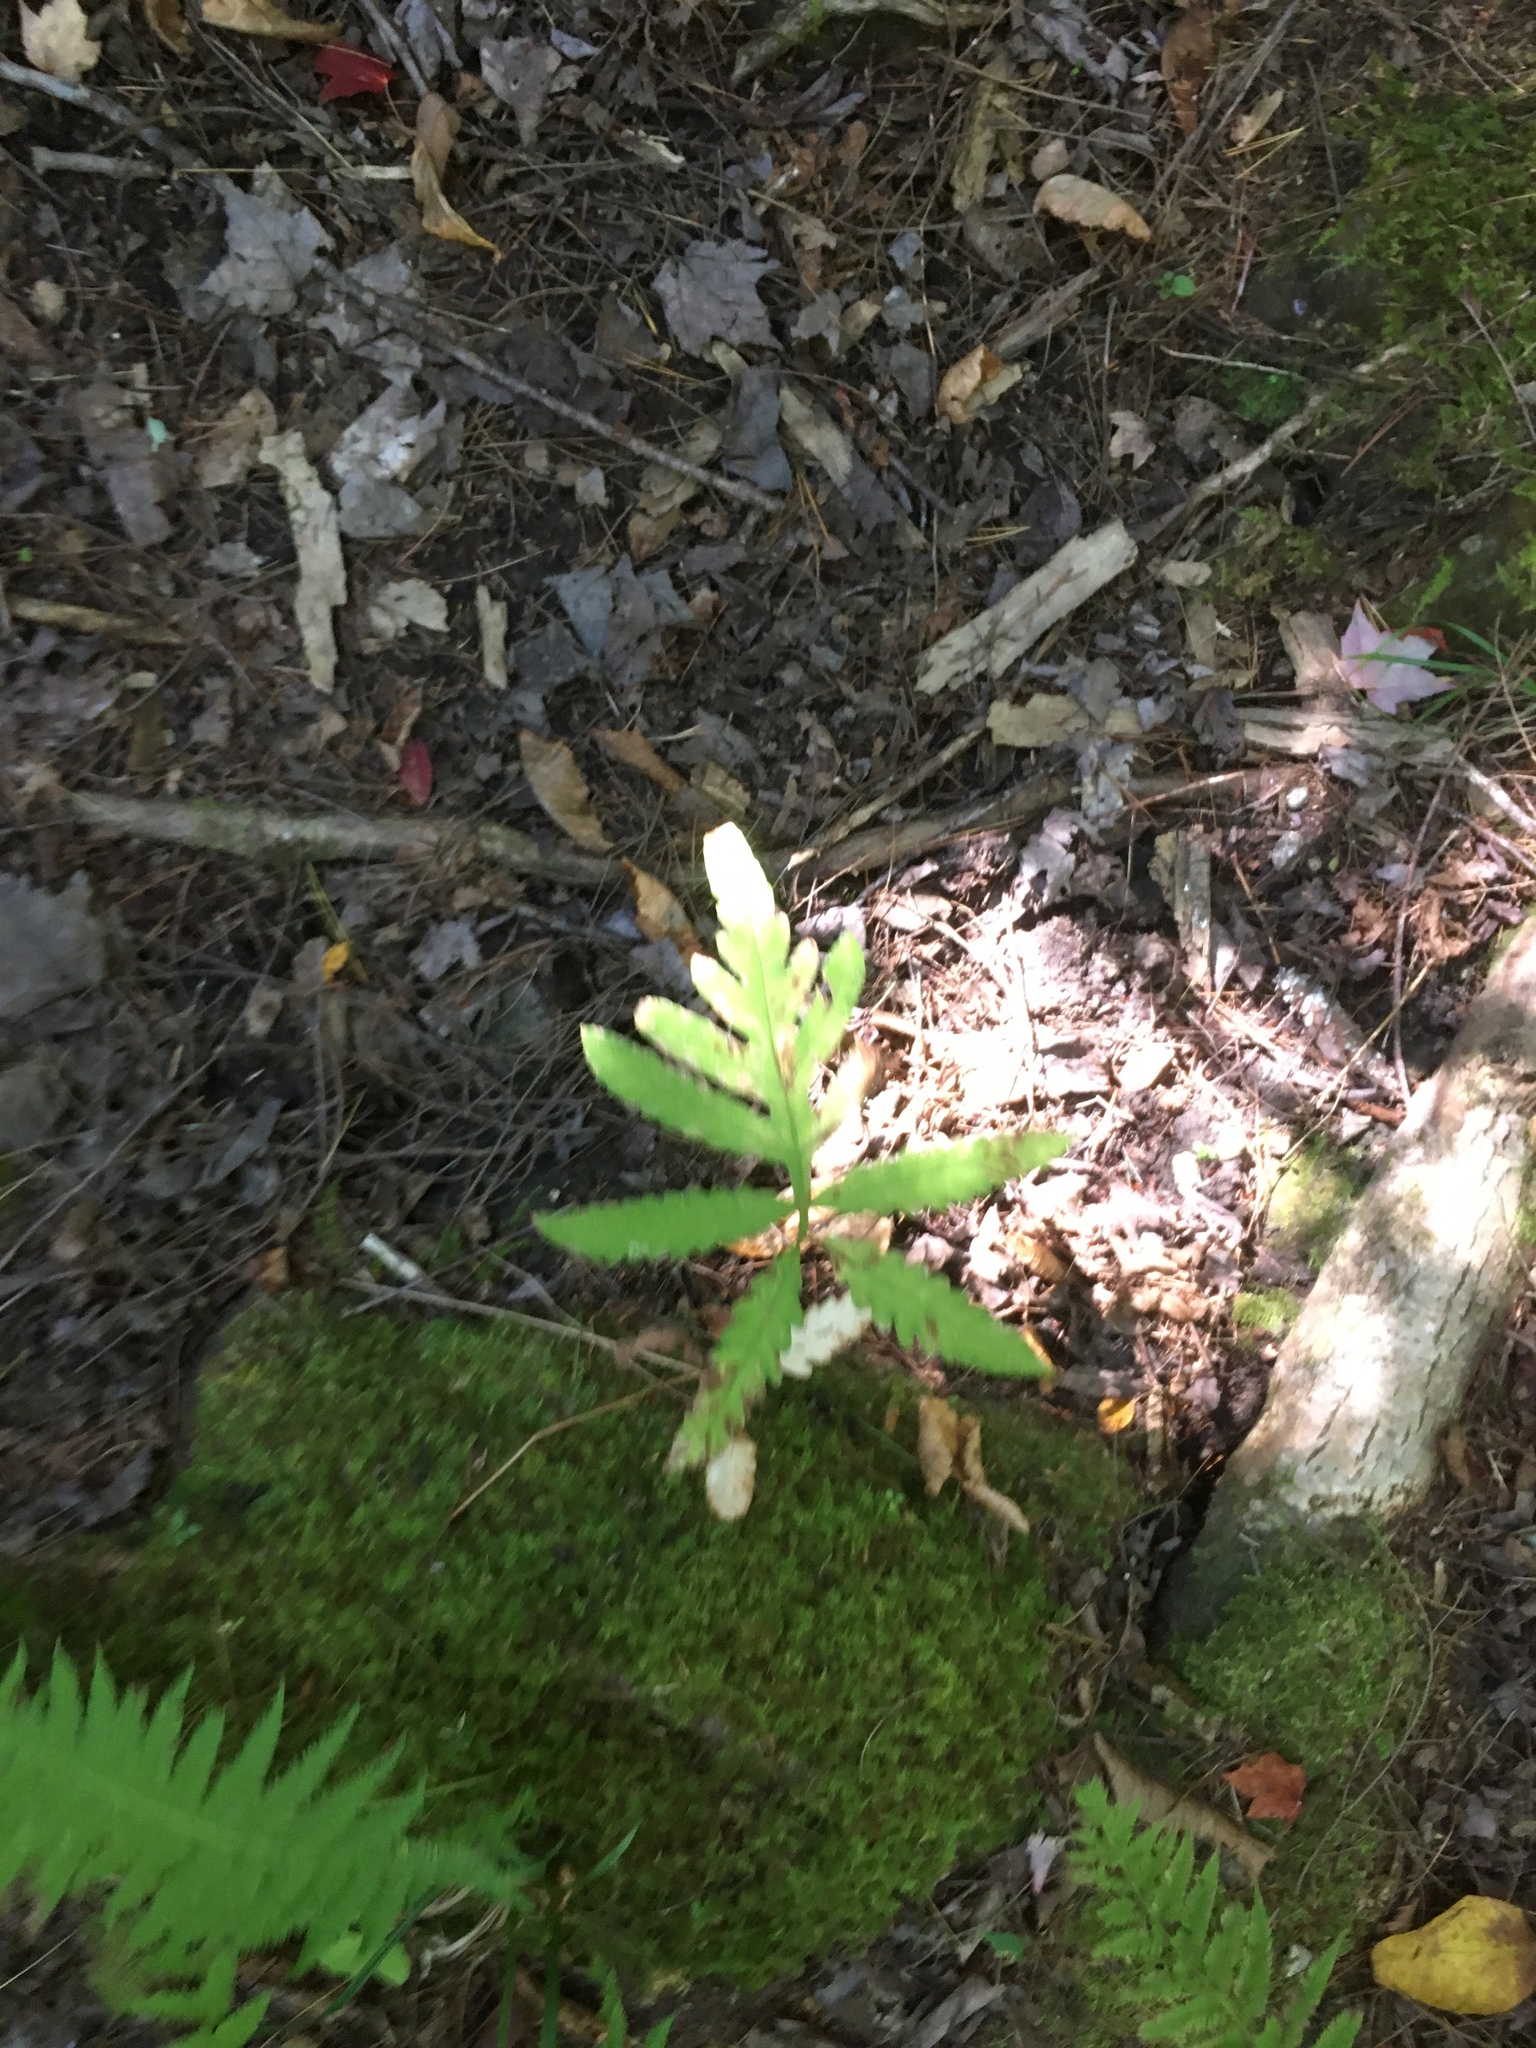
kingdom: Plantae
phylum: Tracheophyta
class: Polypodiopsida
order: Polypodiales
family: Onocleaceae
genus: Onoclea
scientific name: Onoclea sensibilis
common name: Sensitive fern
